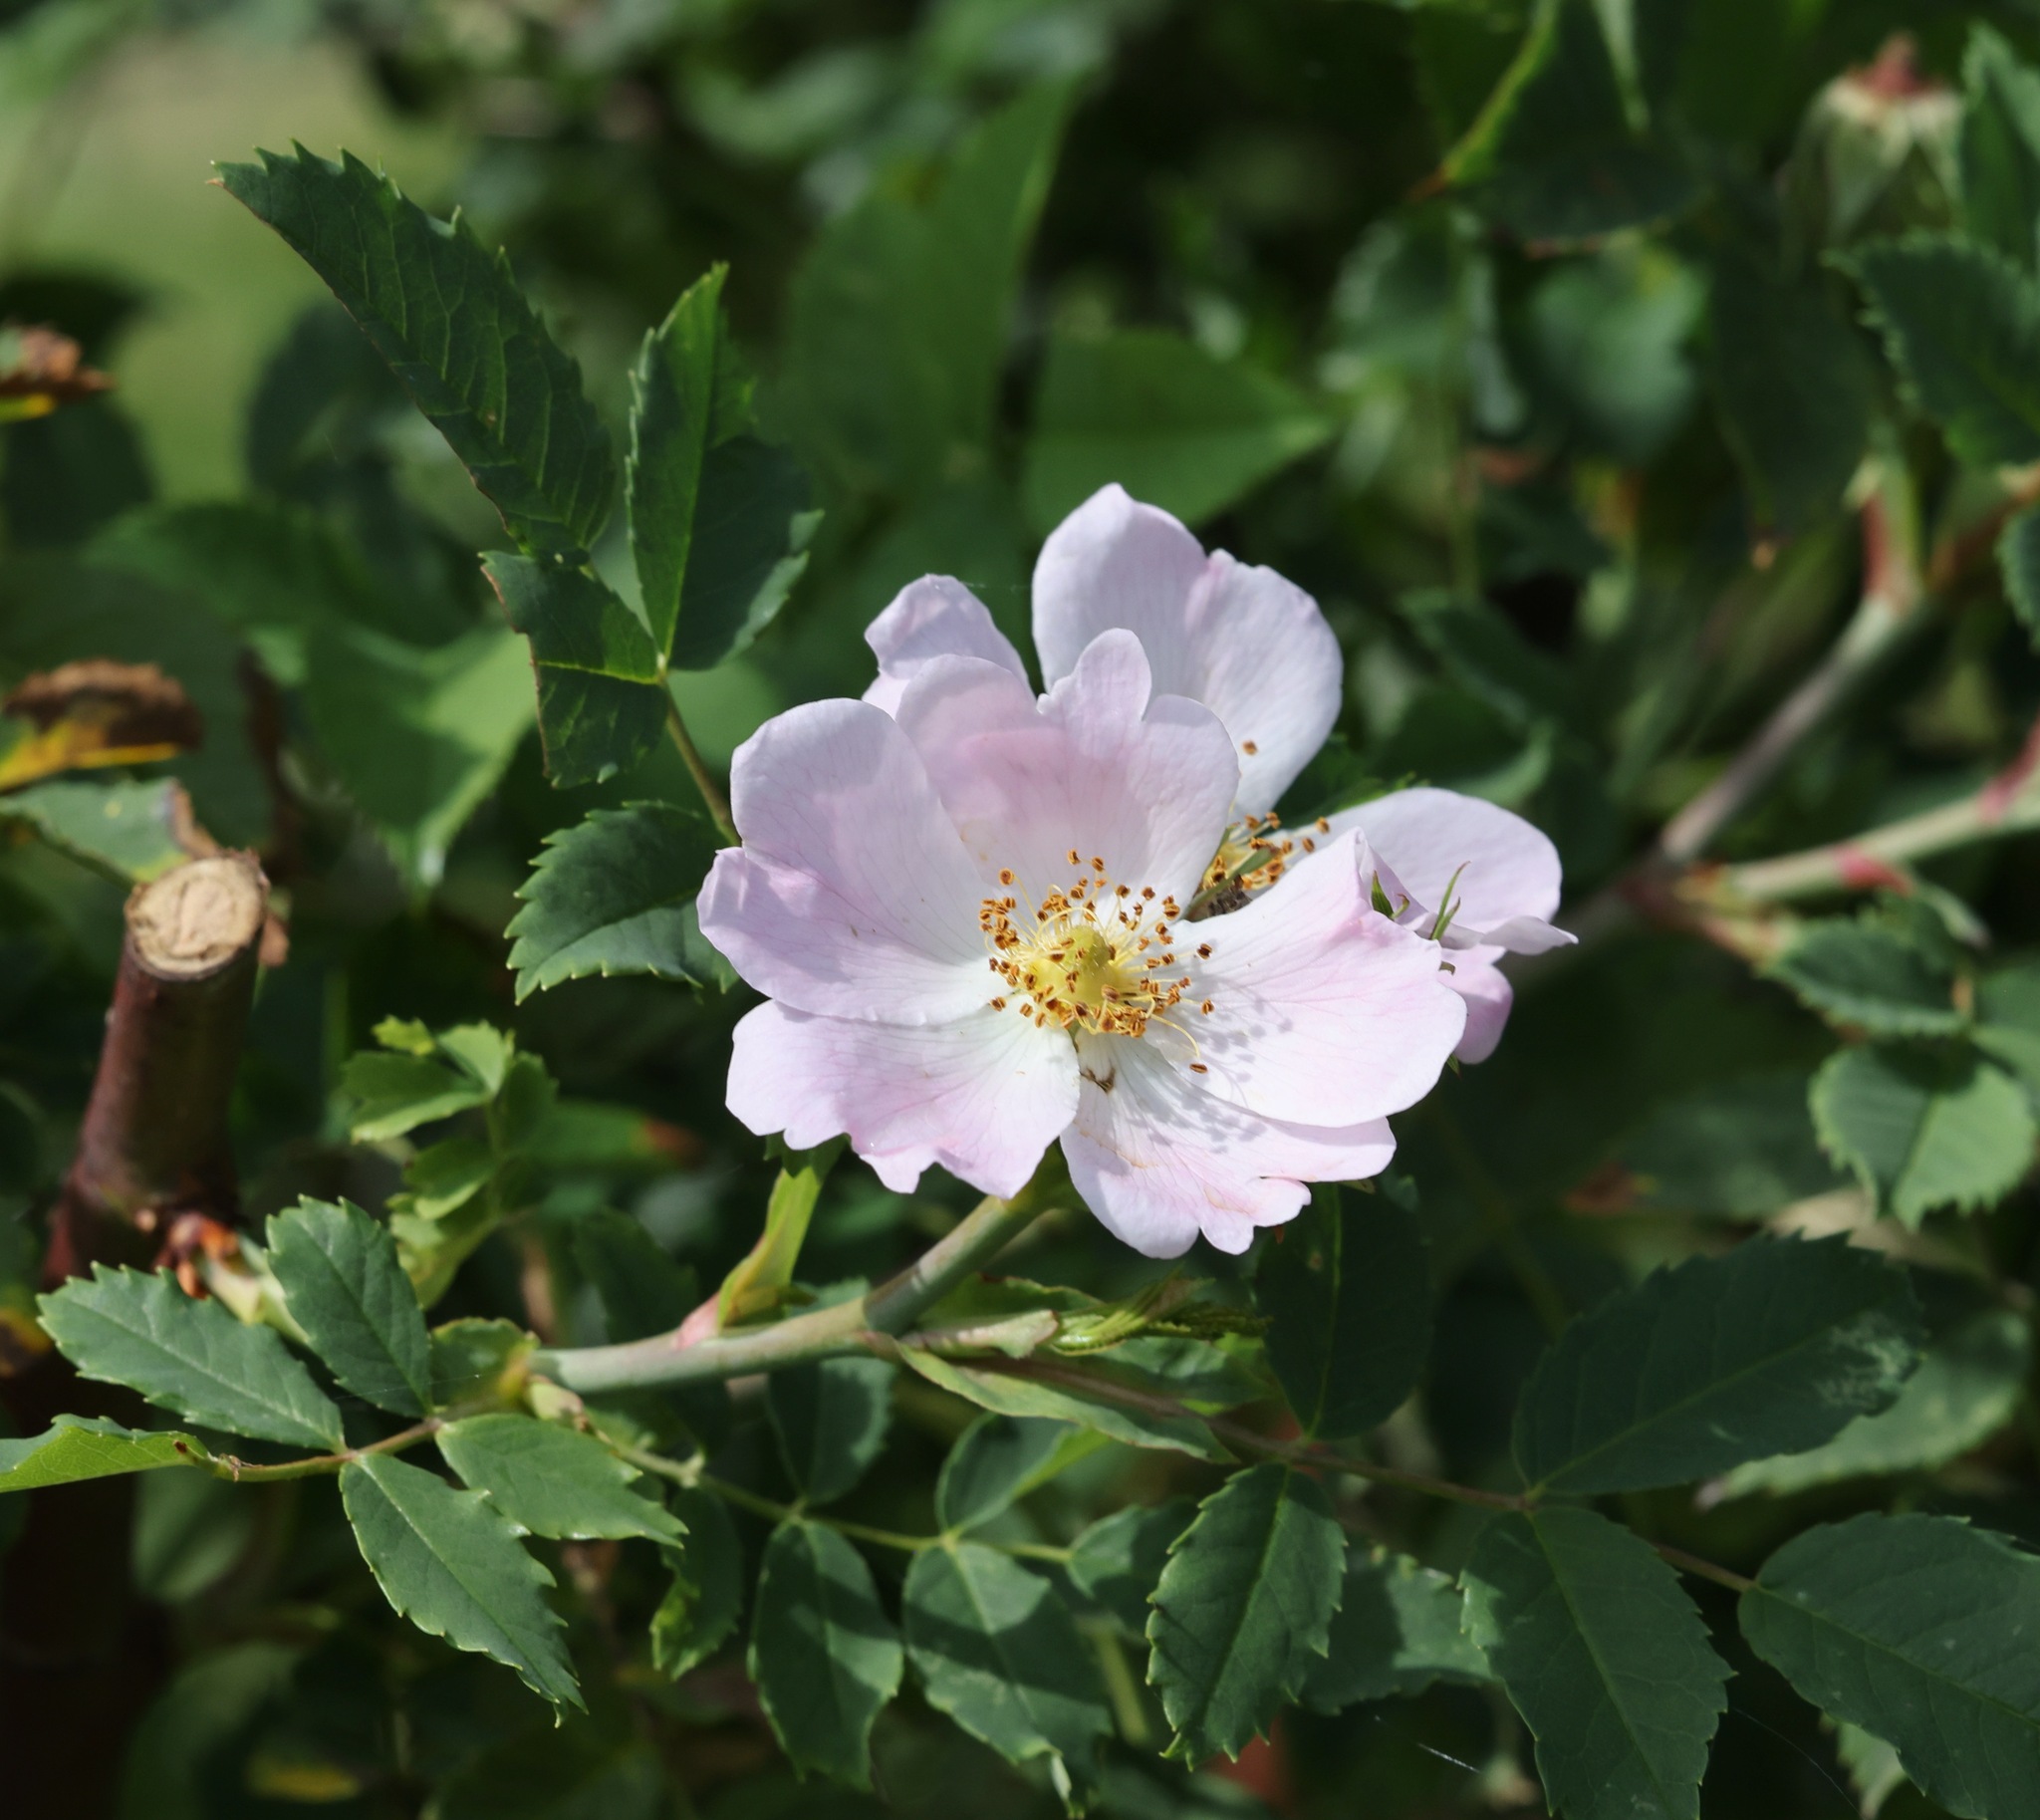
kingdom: Plantae
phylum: Tracheophyta
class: Magnoliopsida
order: Rosales
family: Rosaceae
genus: Rosa
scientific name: Rosa canina
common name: Dog rose
